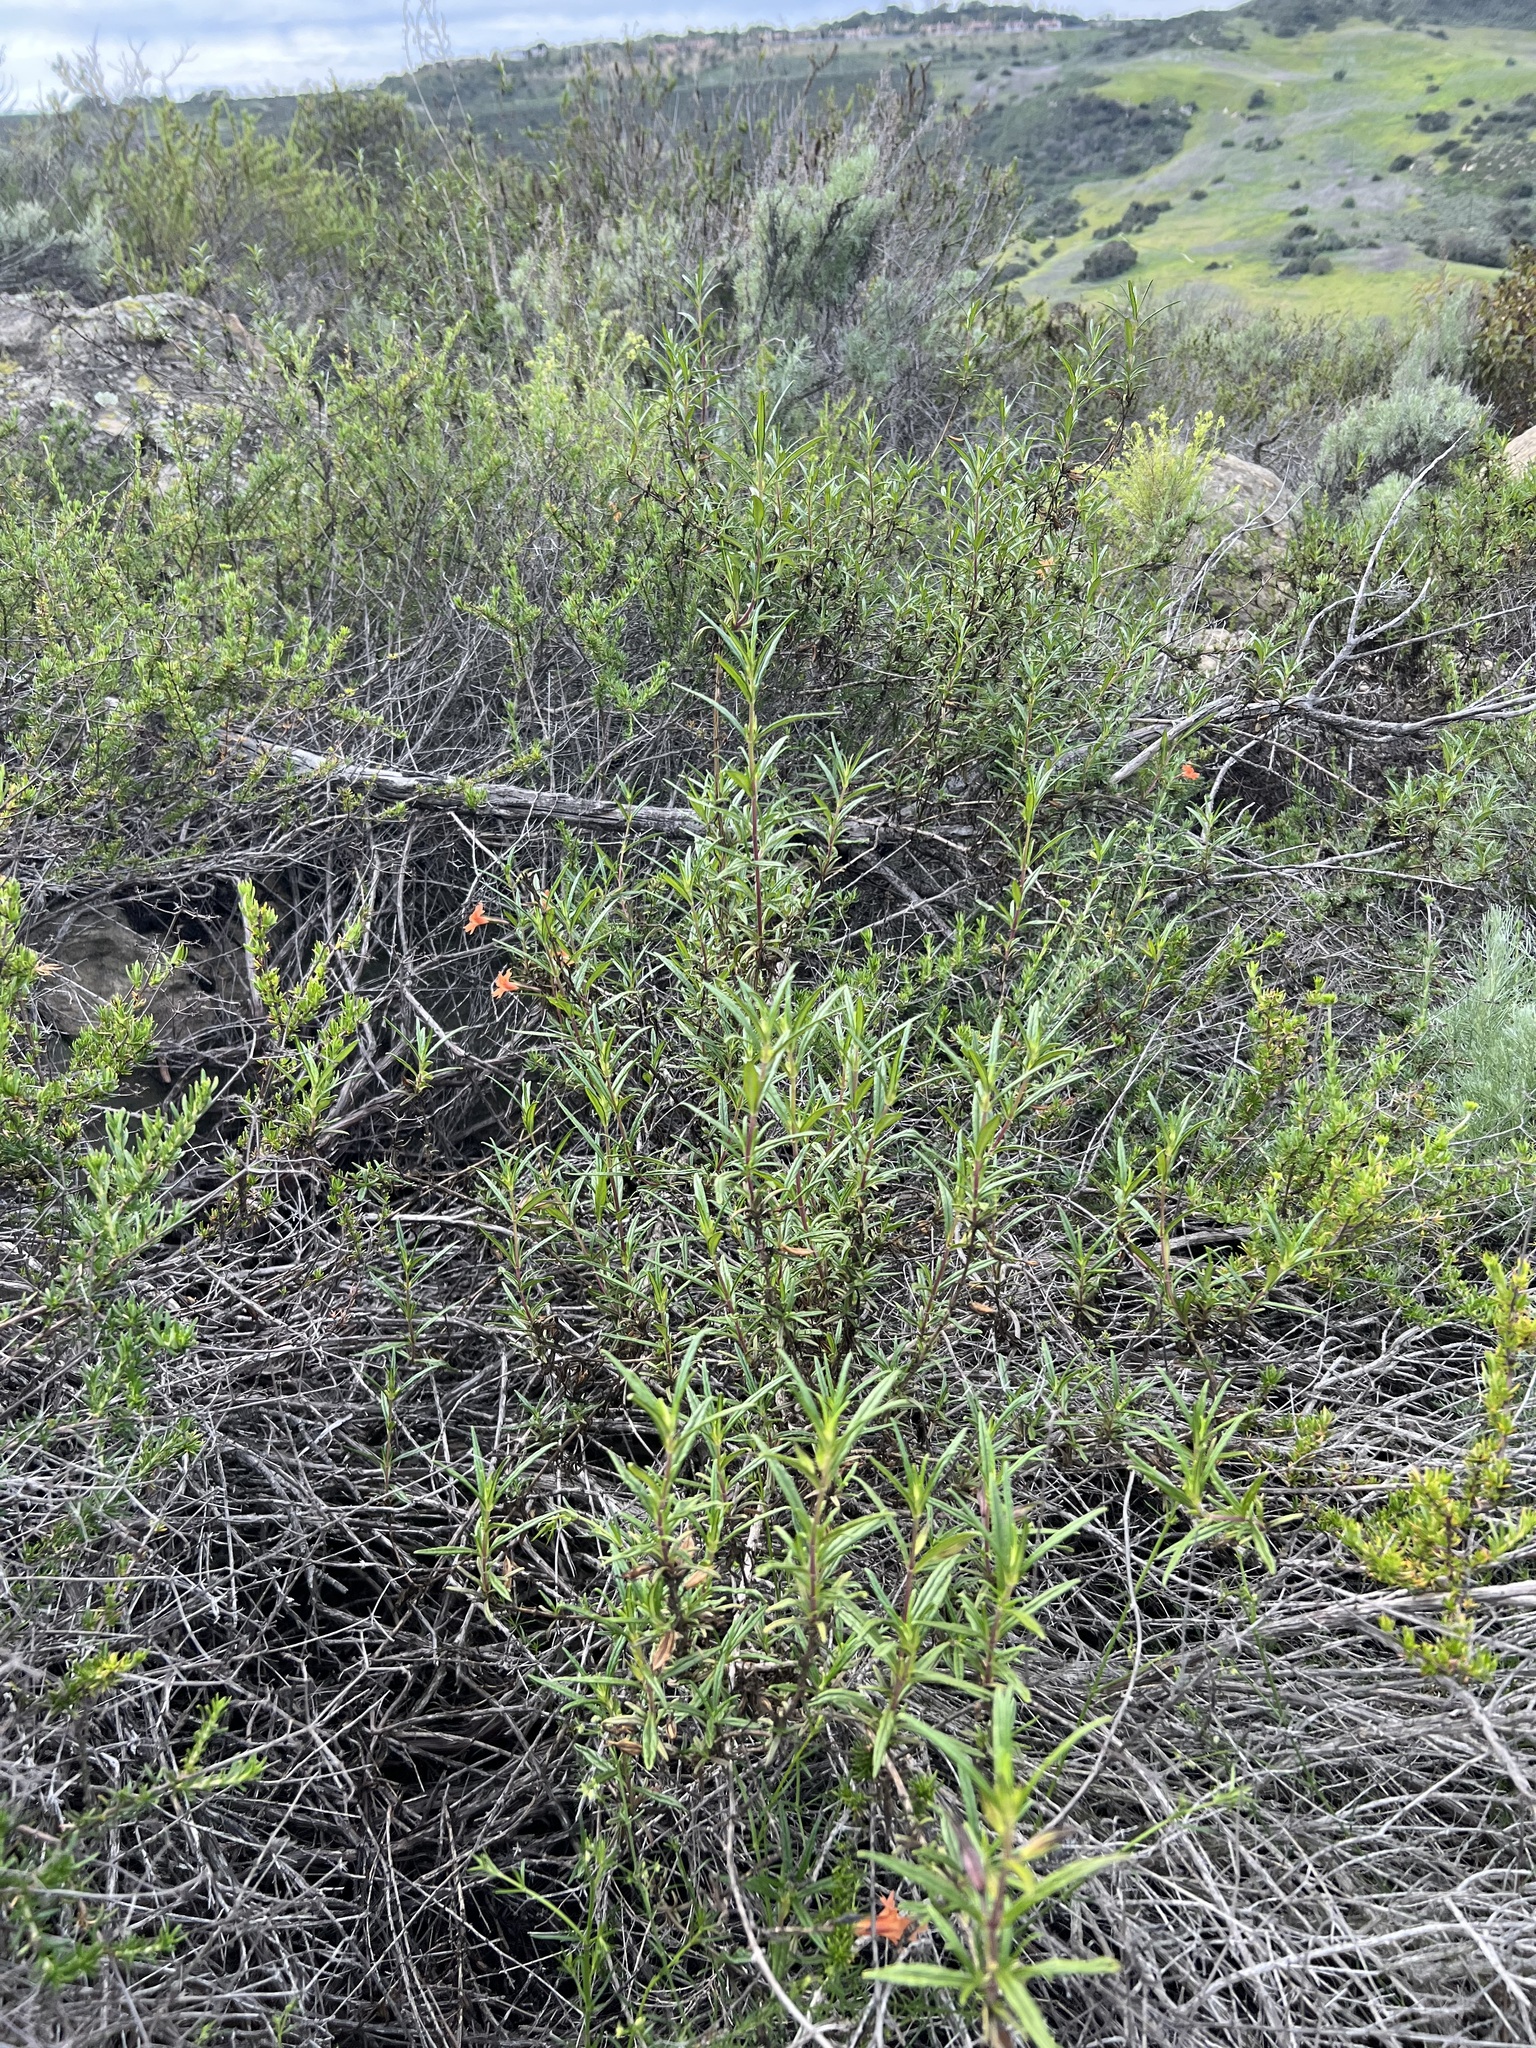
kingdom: Plantae
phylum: Tracheophyta
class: Magnoliopsida
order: Lamiales
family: Phrymaceae
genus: Diplacus
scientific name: Diplacus australis
